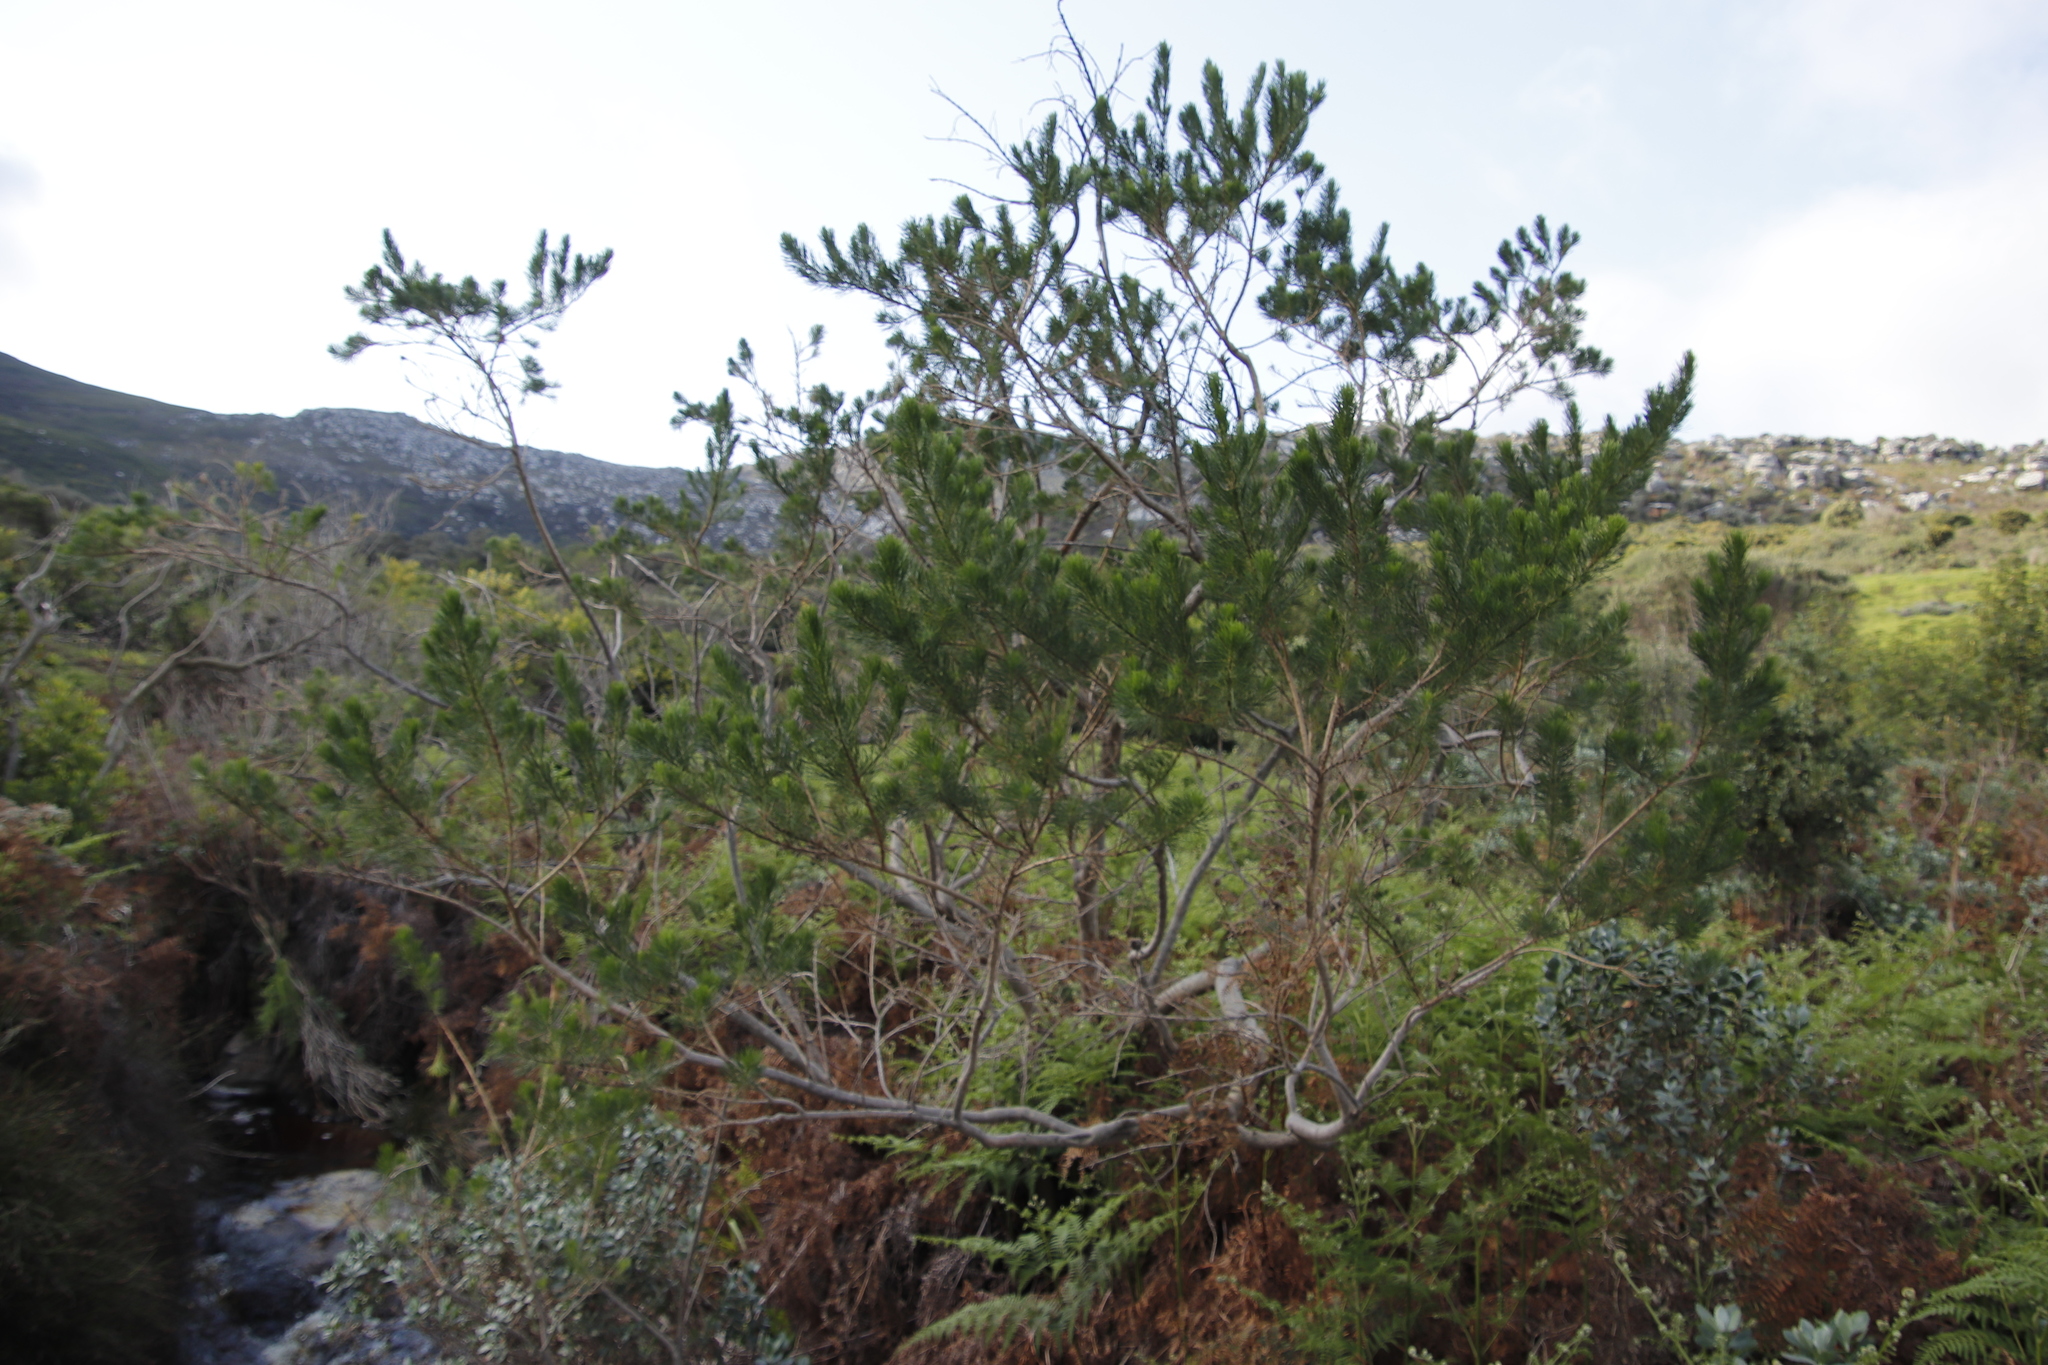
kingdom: Plantae
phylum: Tracheophyta
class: Magnoliopsida
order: Fabales
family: Fabaceae
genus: Psoralea
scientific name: Psoralea pinnata
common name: African scurfpea
